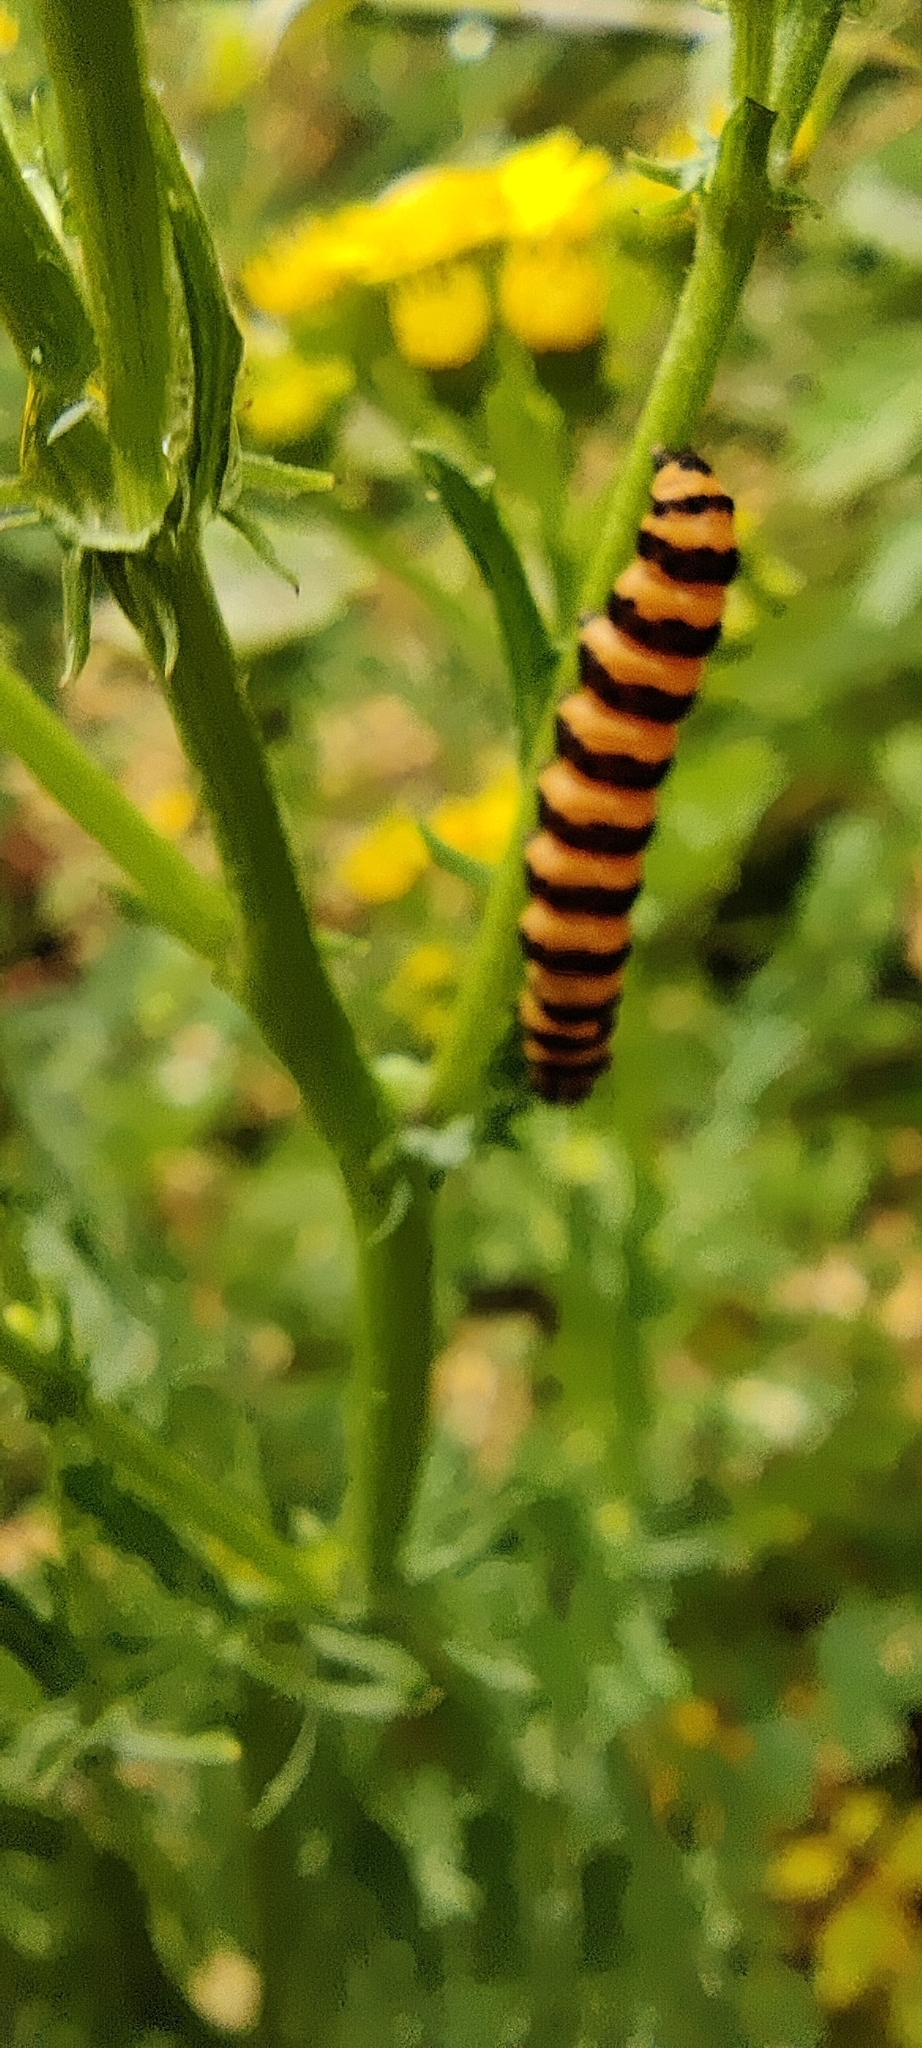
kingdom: Animalia
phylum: Arthropoda
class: Insecta
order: Lepidoptera
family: Erebidae
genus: Tyria
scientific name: Tyria jacobaeae
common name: Cinnabar
